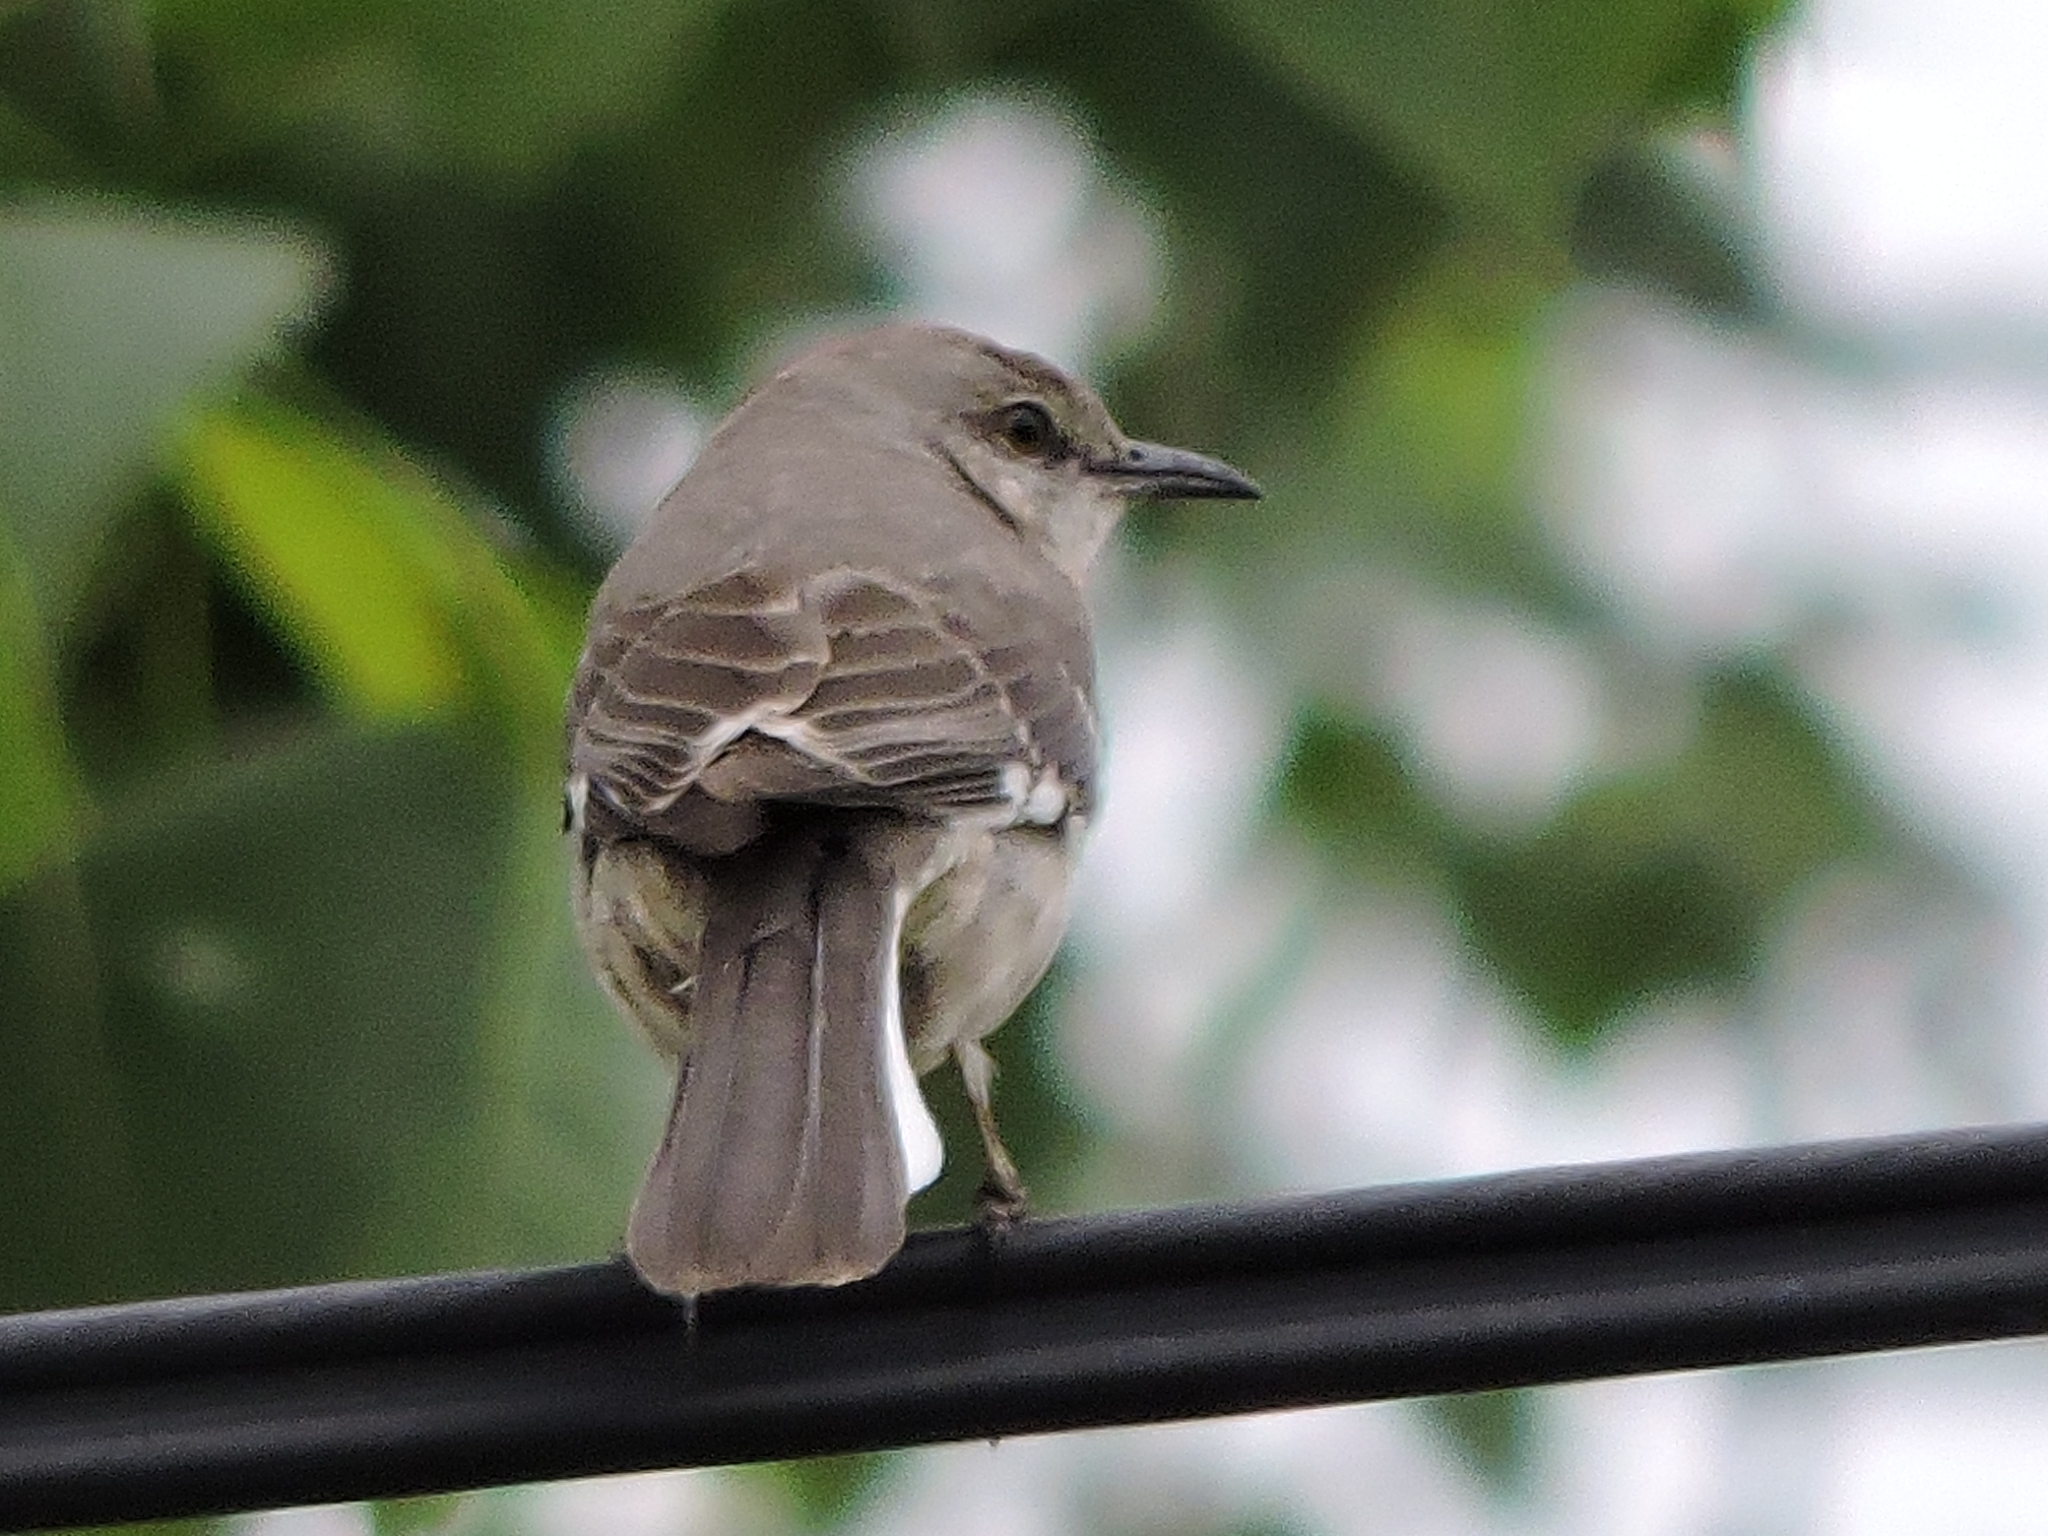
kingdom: Animalia
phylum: Chordata
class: Aves
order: Passeriformes
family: Mimidae
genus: Mimus
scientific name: Mimus polyglottos
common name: Northern mockingbird
